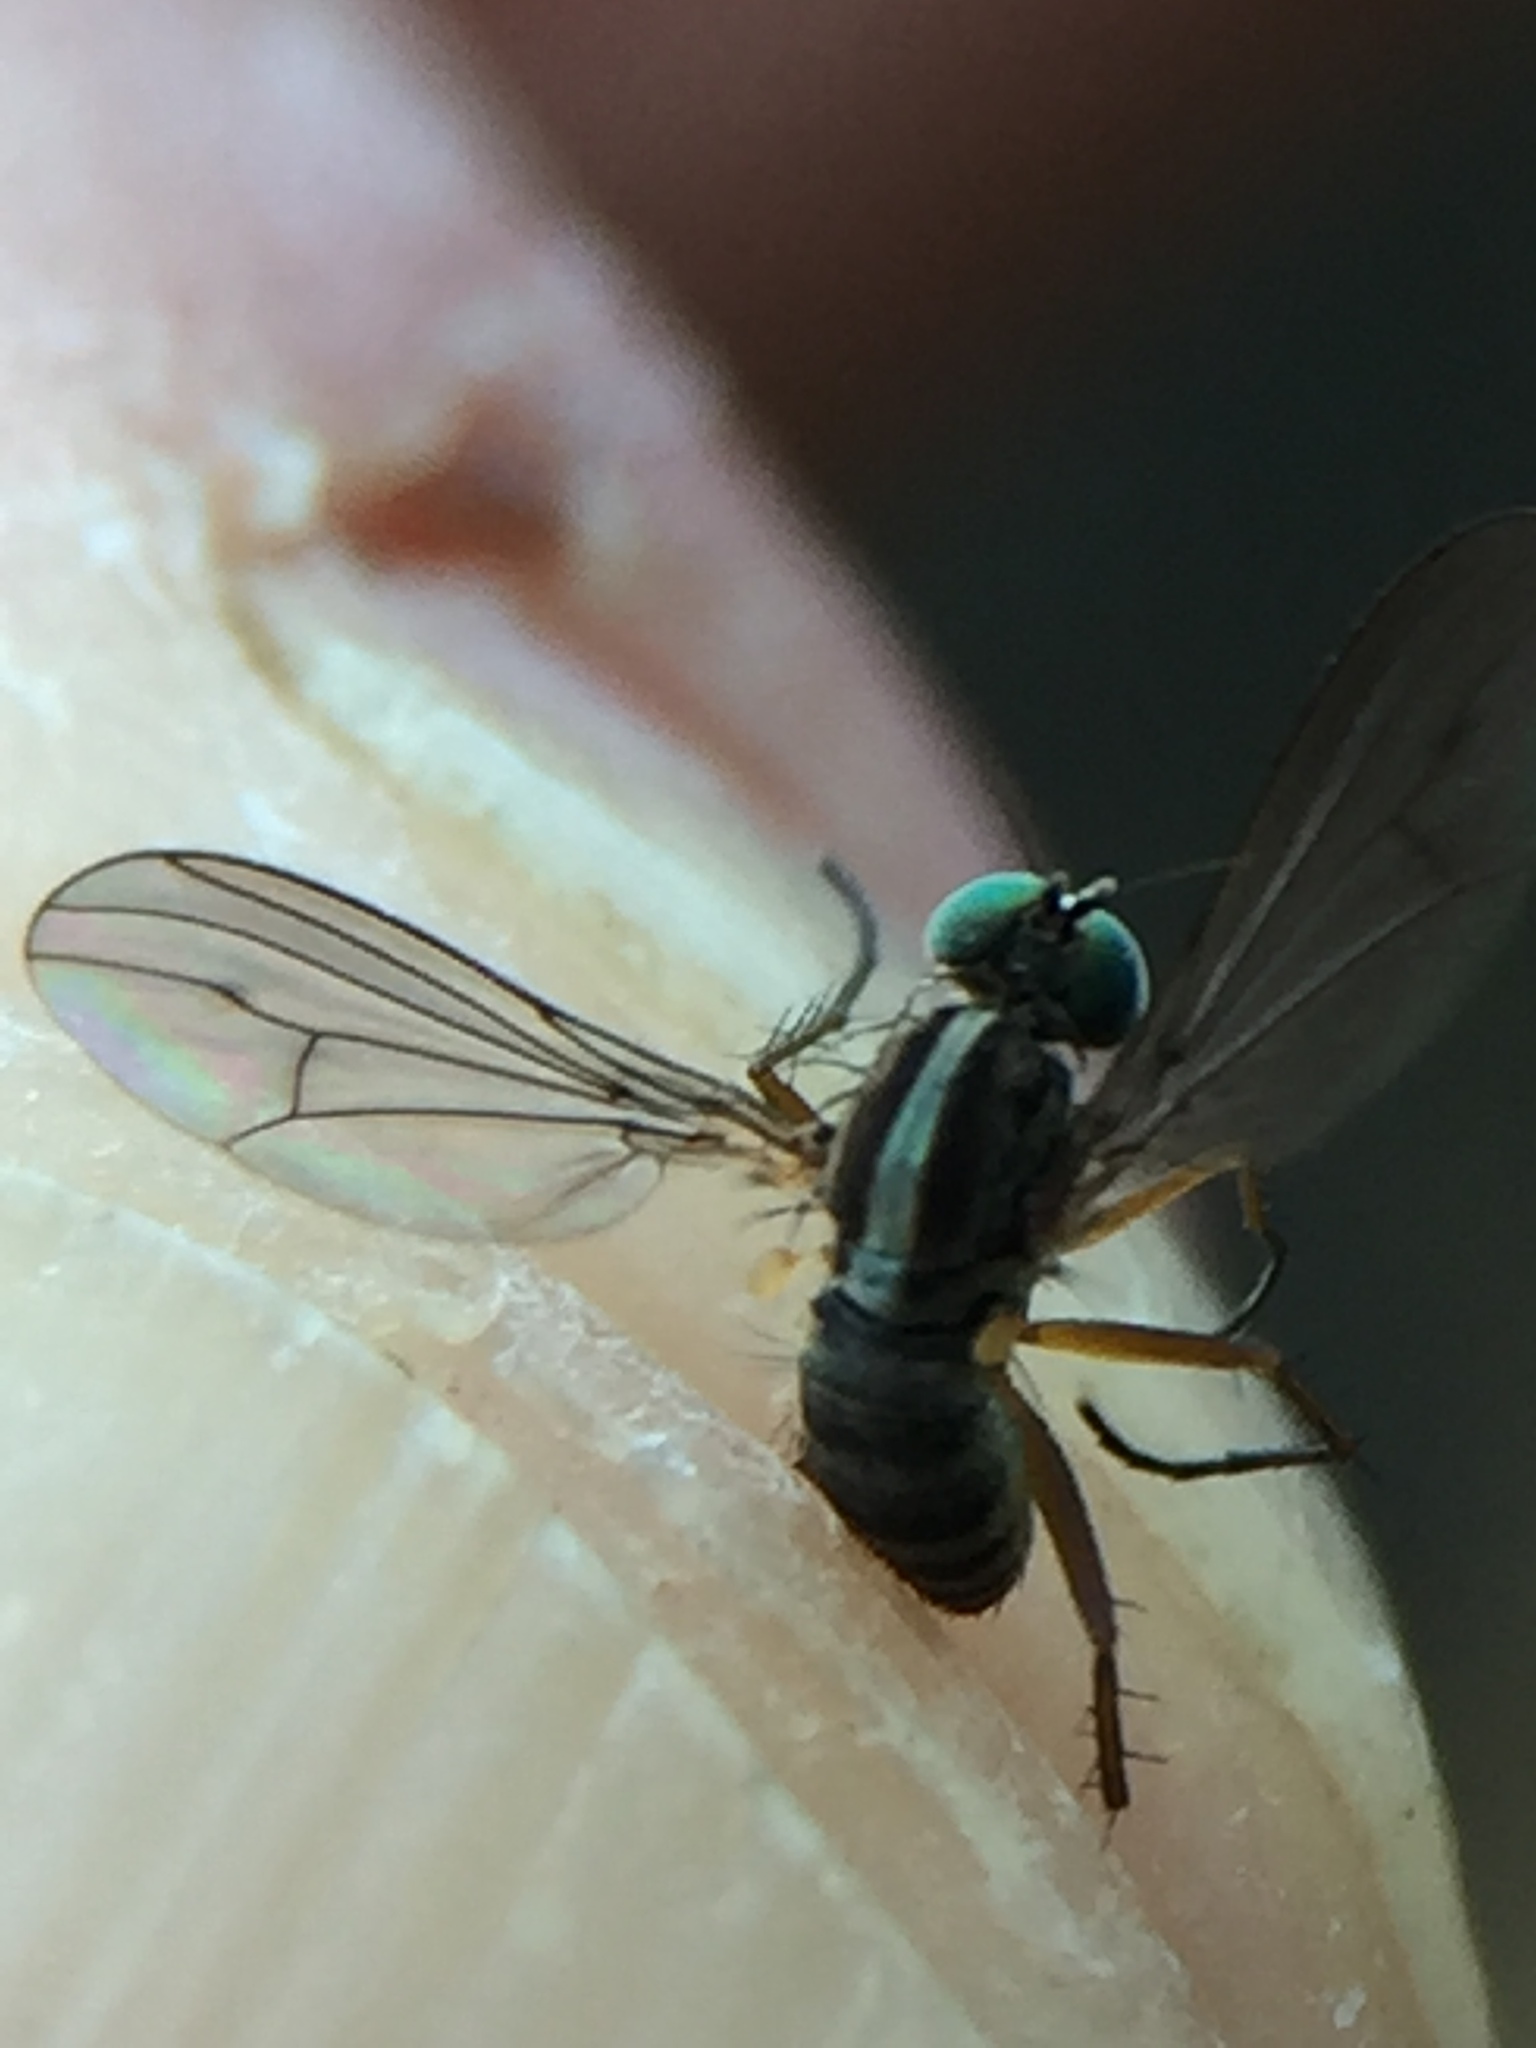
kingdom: Animalia
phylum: Arthropoda
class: Insecta
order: Diptera
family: Dolichopodidae
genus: Tetrachaetus
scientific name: Tetrachaetus bipunctatus
